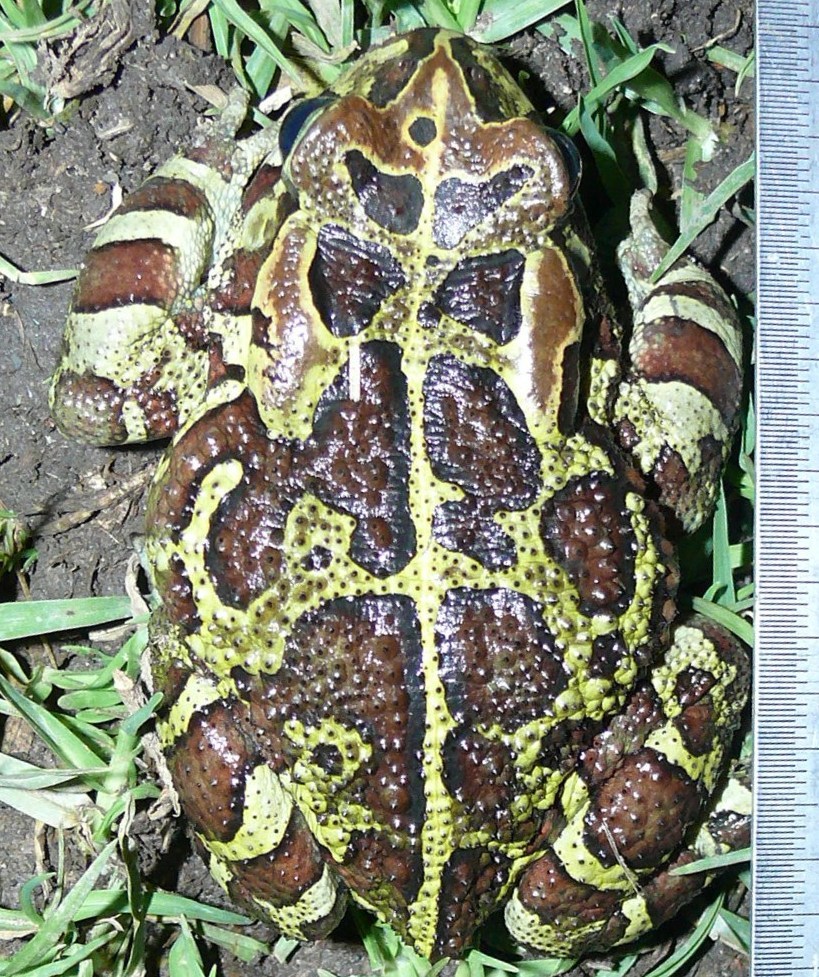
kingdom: Animalia
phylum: Chordata
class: Amphibia
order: Anura
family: Bufonidae
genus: Sclerophrys
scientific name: Sclerophrys pantherina
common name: Panther toad
